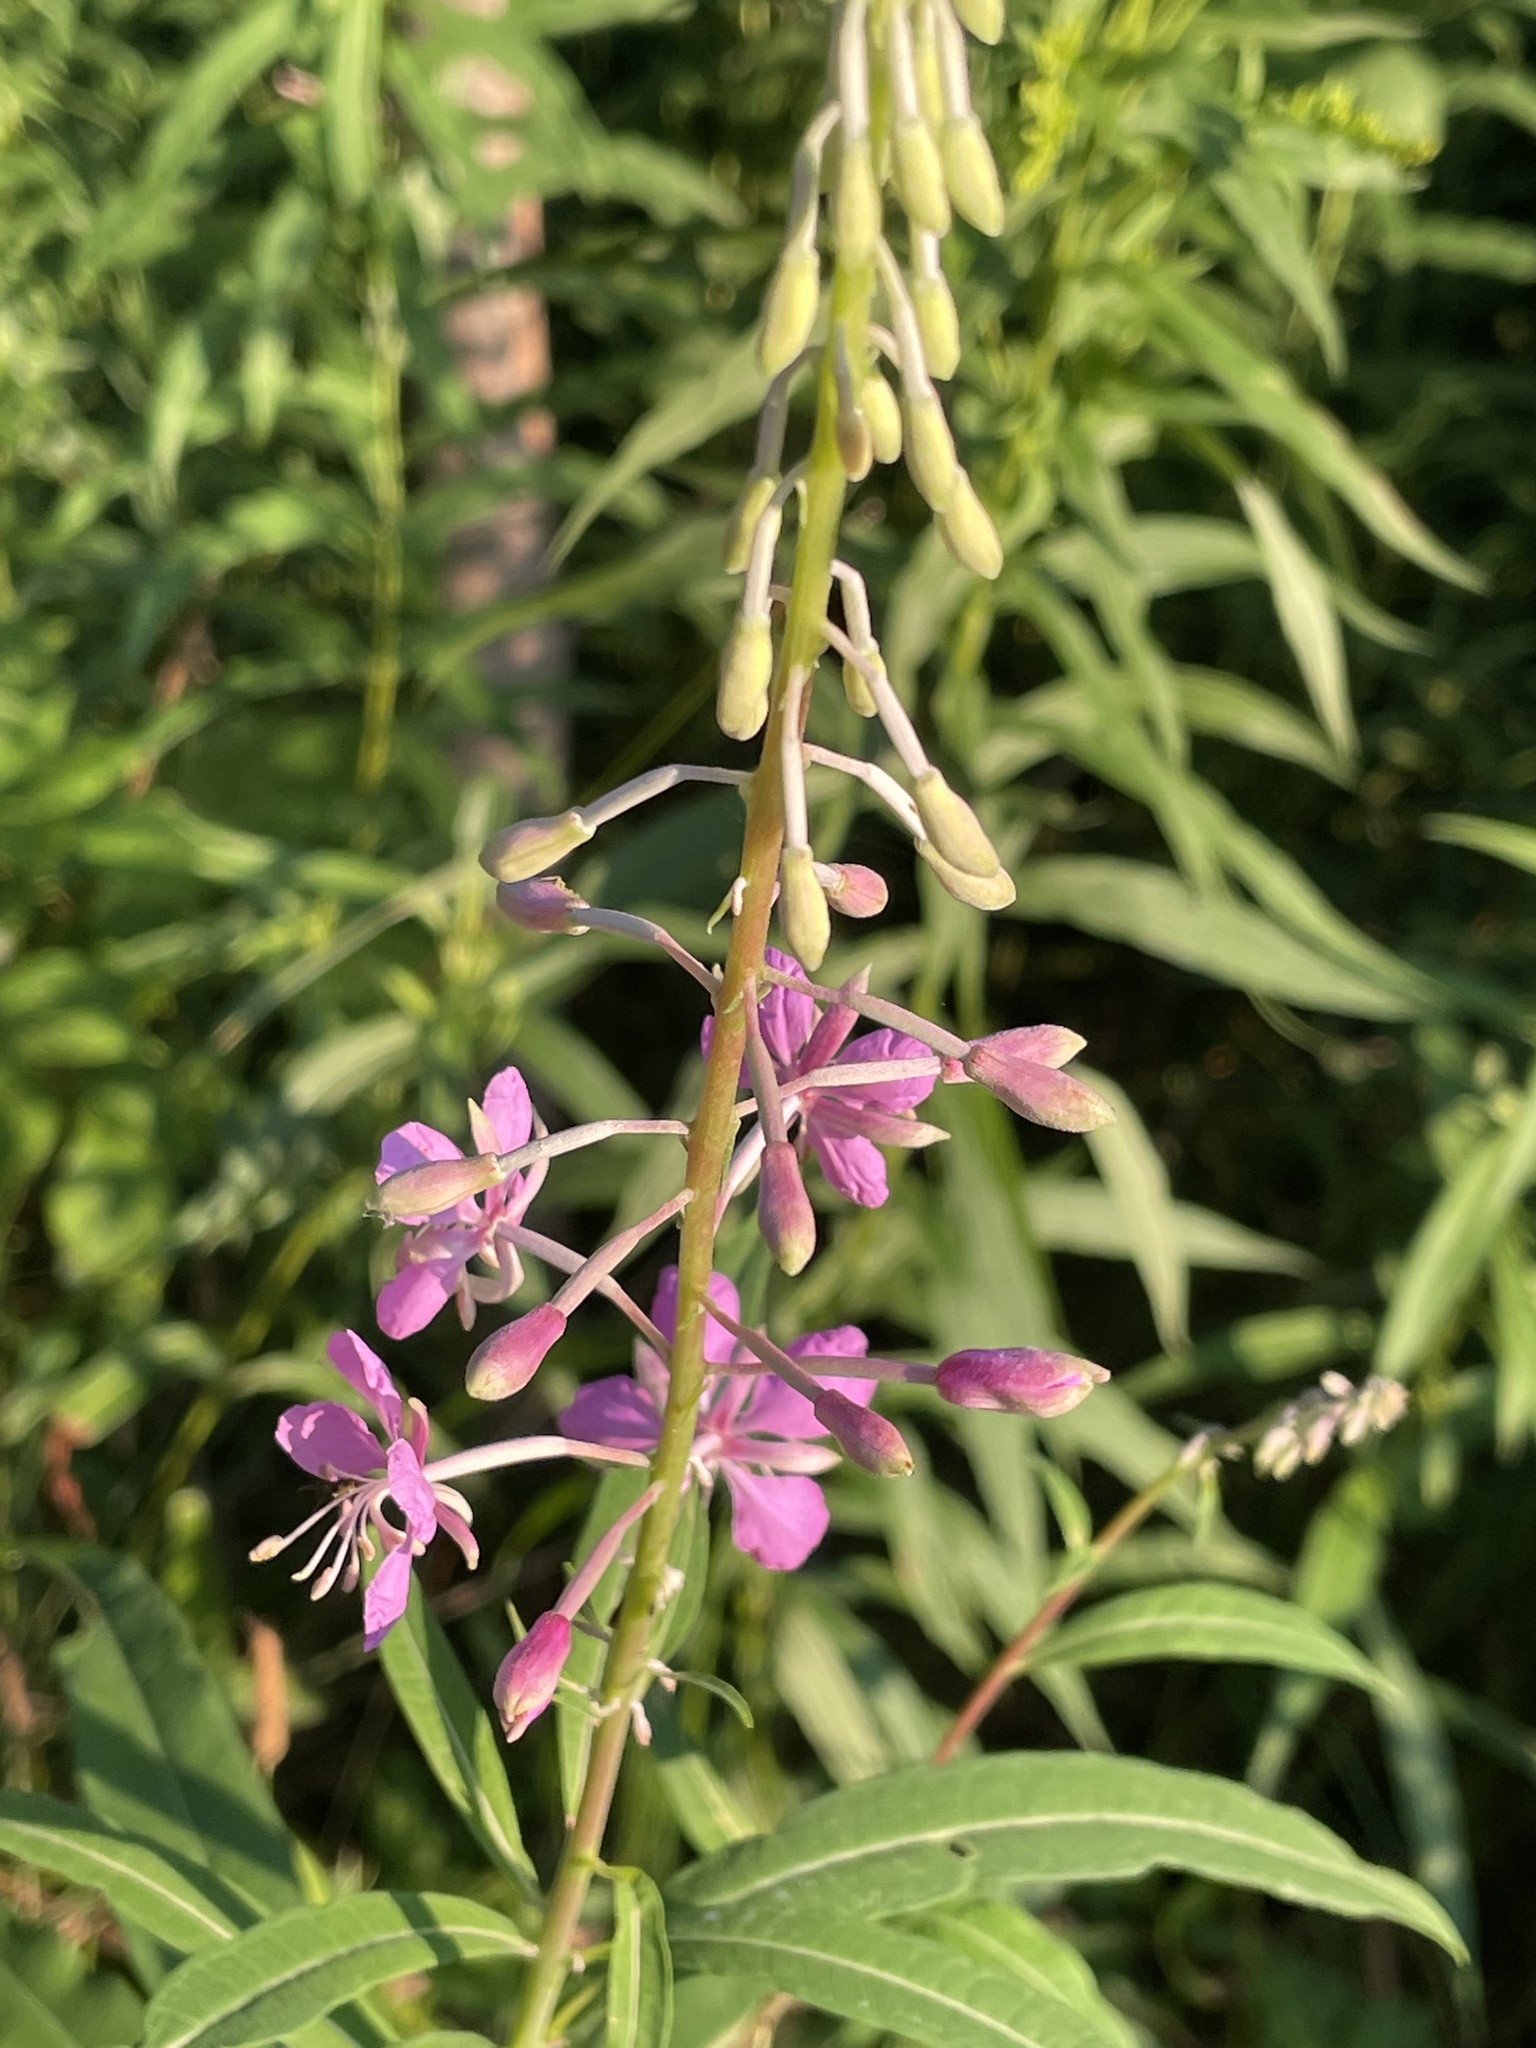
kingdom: Plantae
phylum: Tracheophyta
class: Magnoliopsida
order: Myrtales
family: Onagraceae
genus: Chamaenerion
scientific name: Chamaenerion angustifolium
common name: Fireweed
